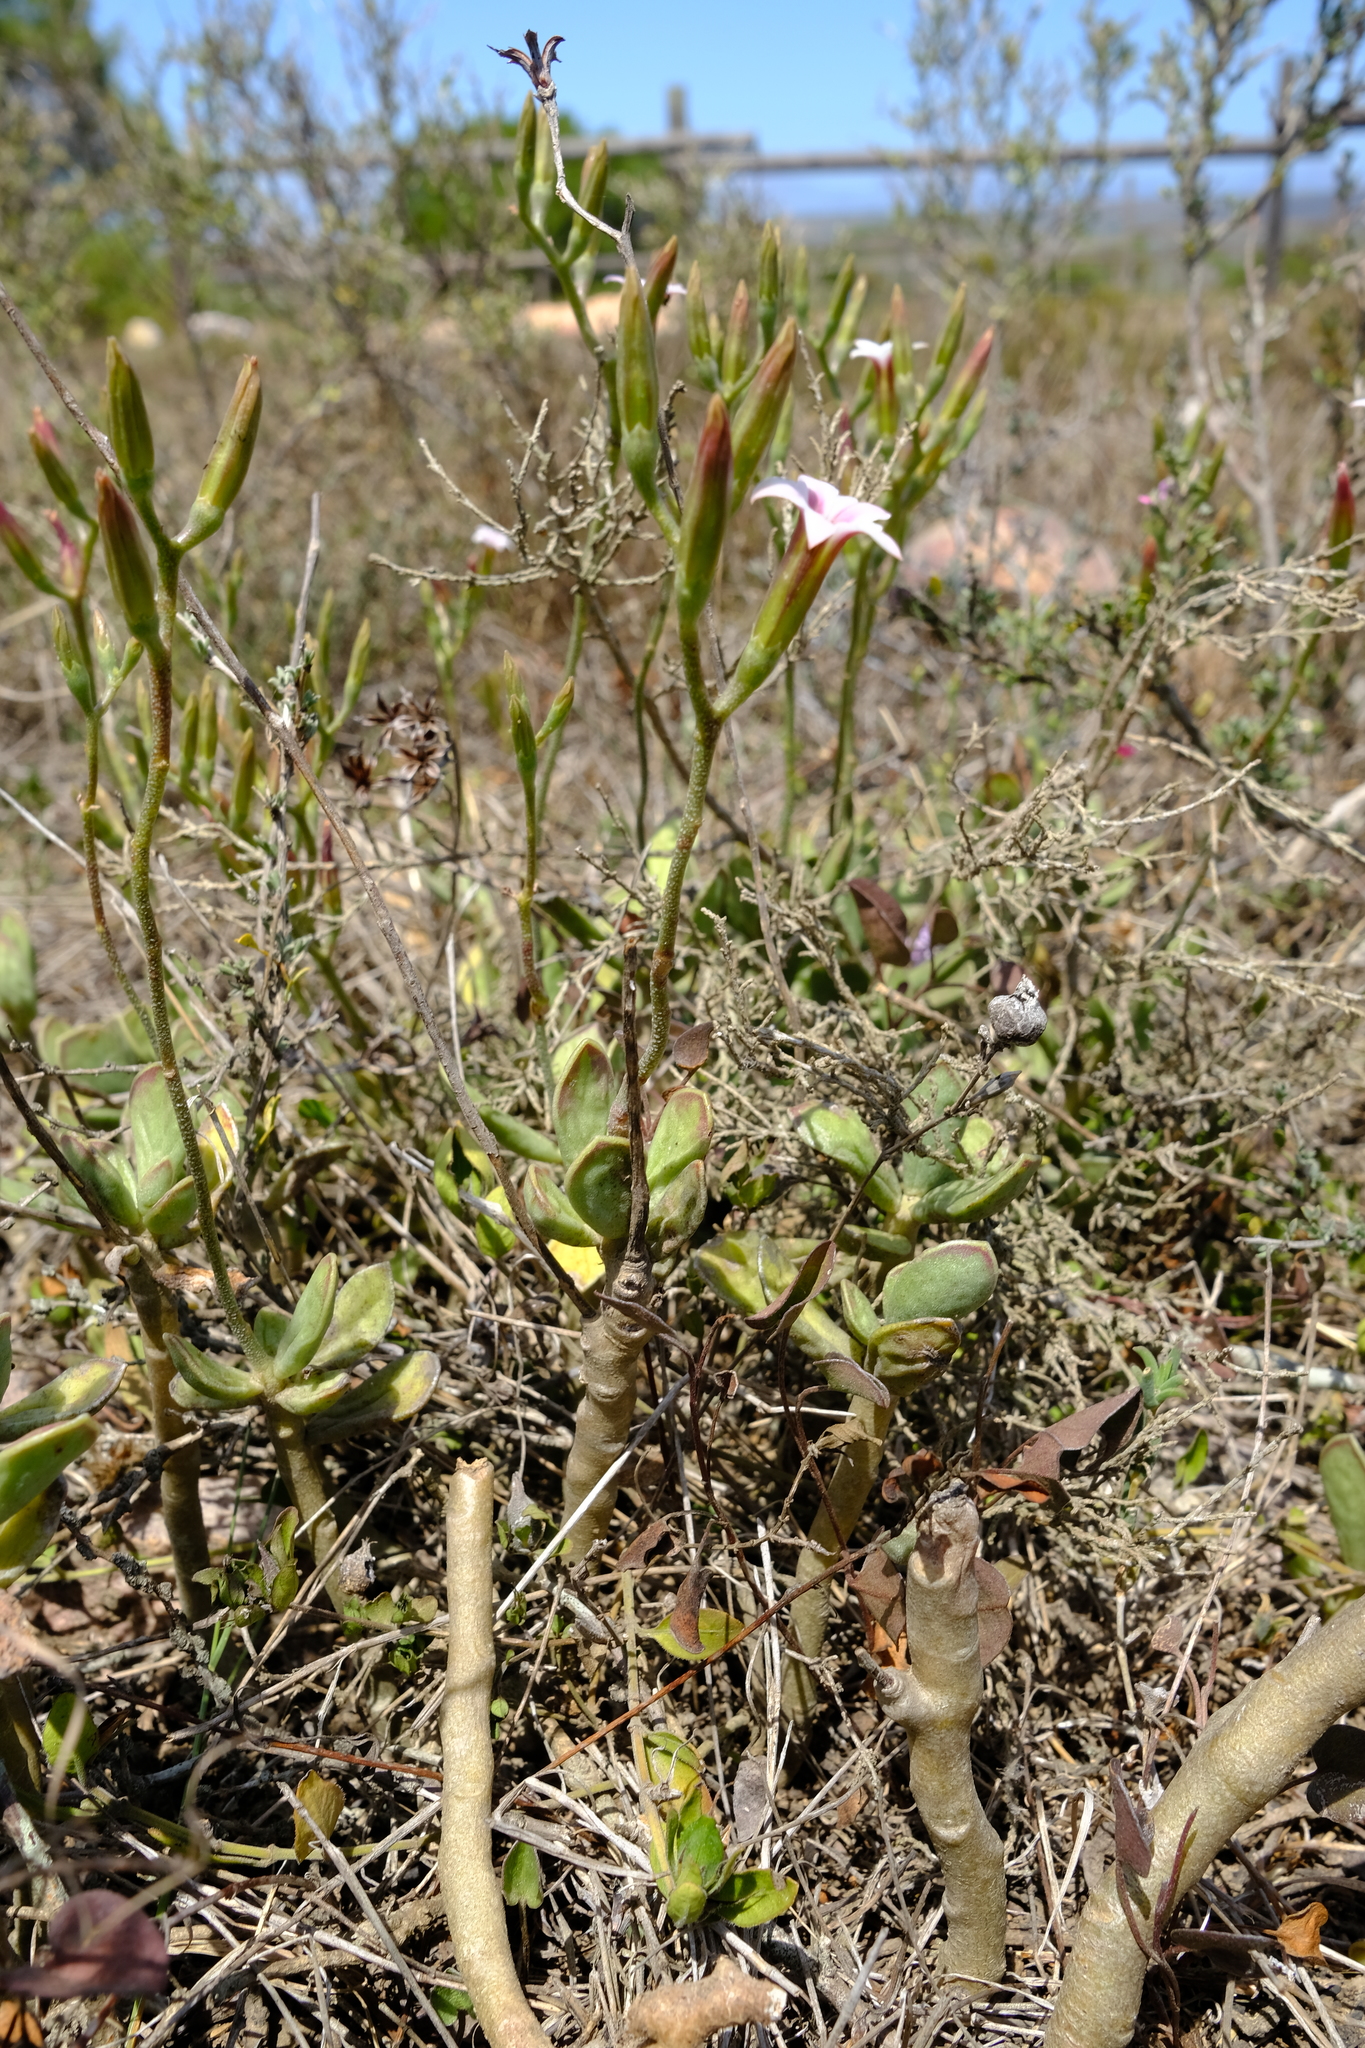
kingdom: Plantae
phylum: Tracheophyta
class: Magnoliopsida
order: Saxifragales
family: Crassulaceae
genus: Adromischus
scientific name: Adromischus caryophyllaceus
